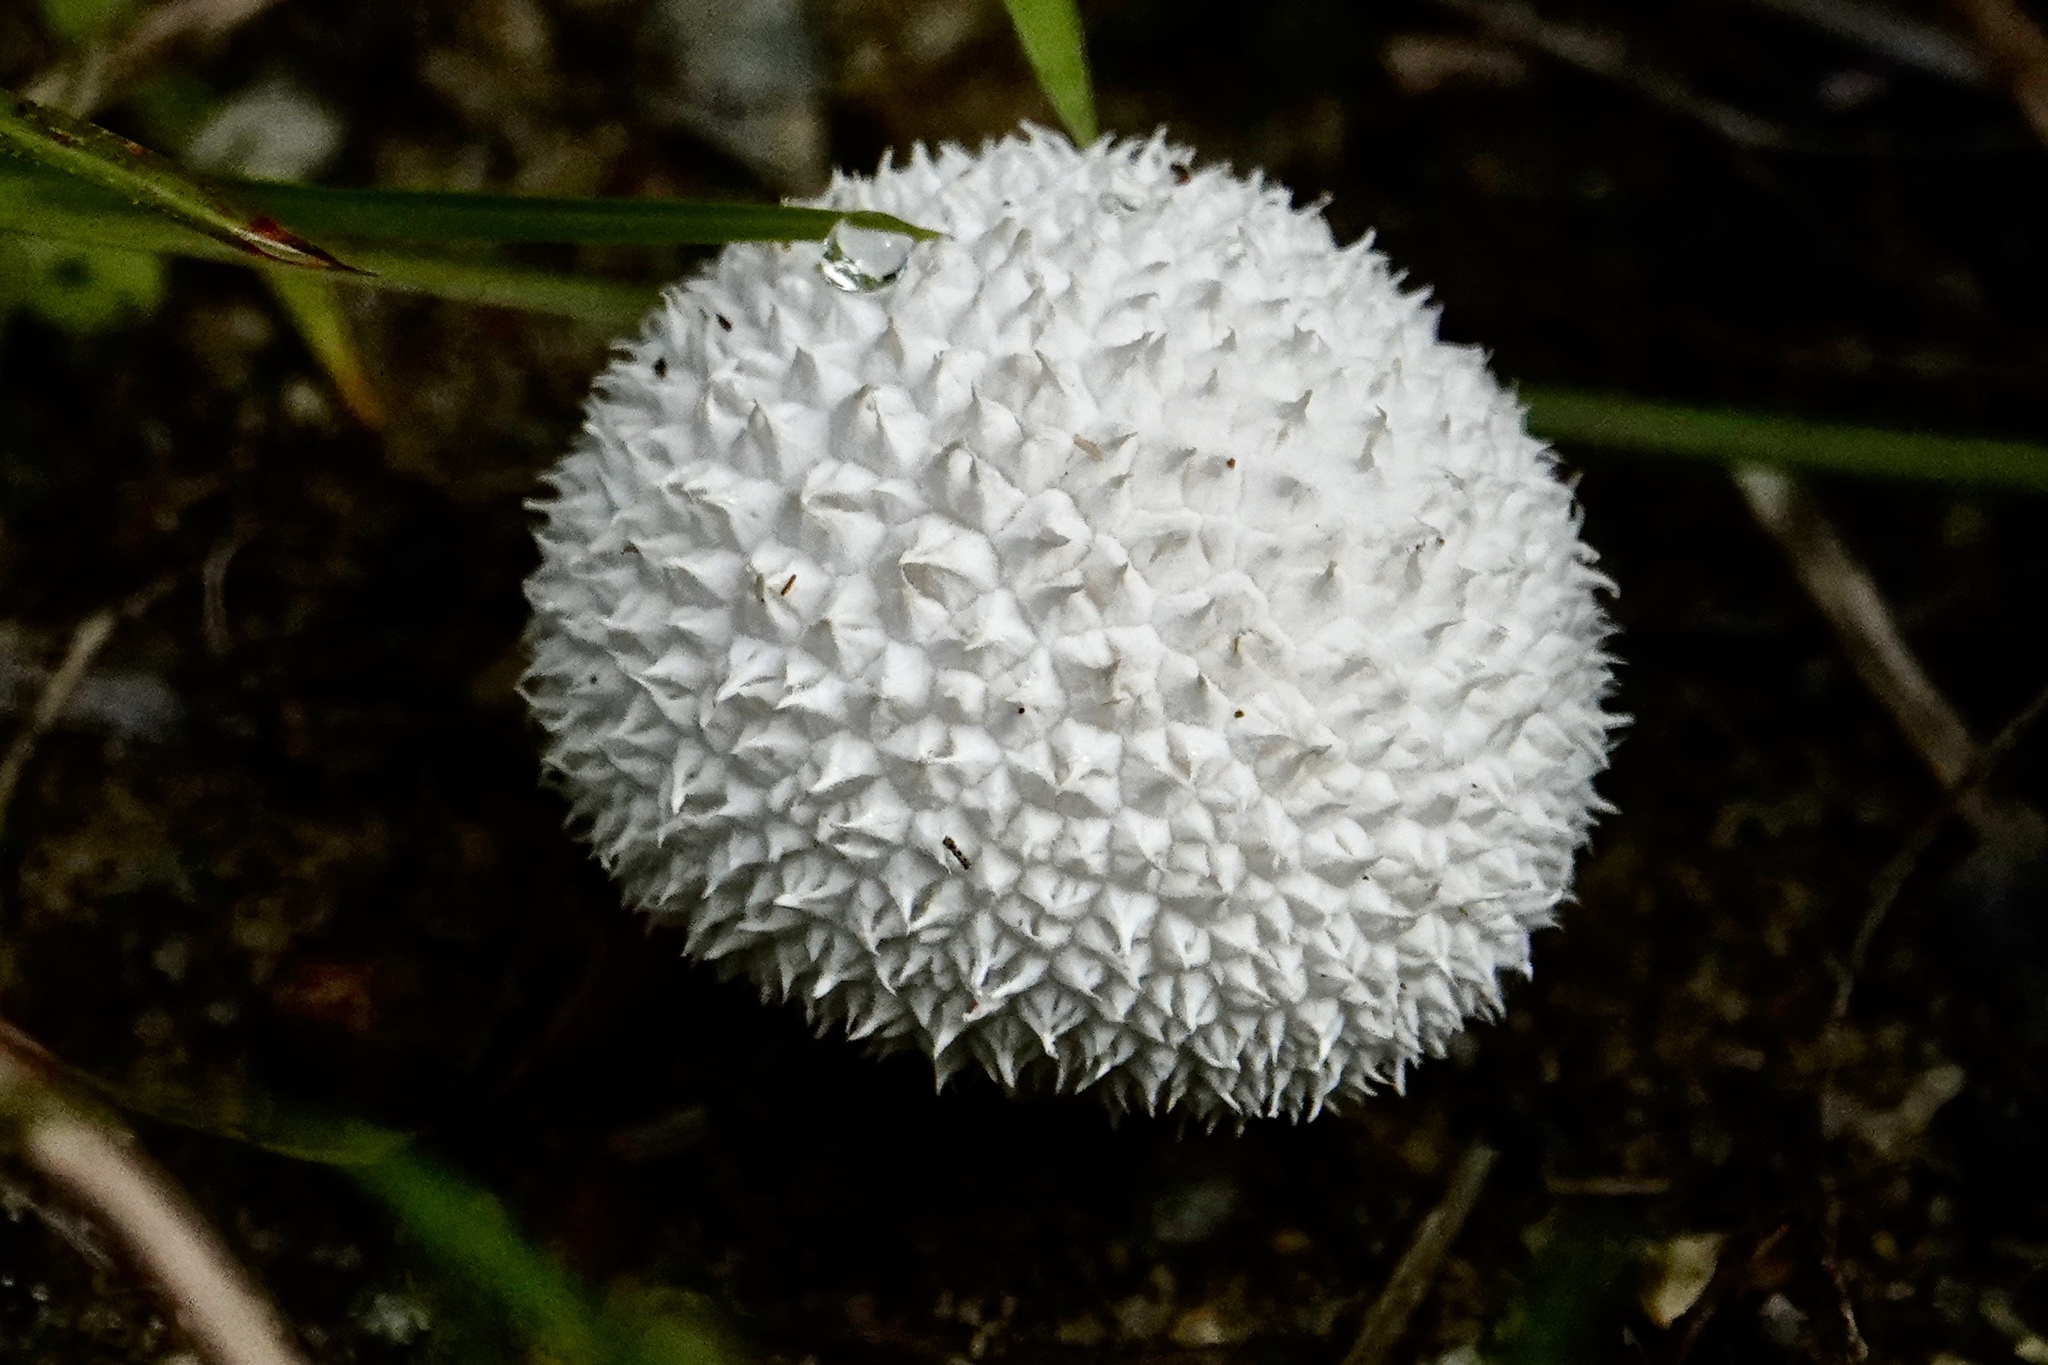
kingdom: Fungi
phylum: Basidiomycota
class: Agaricomycetes
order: Agaricales
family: Agaricaceae
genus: Lycoperdon
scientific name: Lycoperdon marginatum
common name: Peeling puffball
